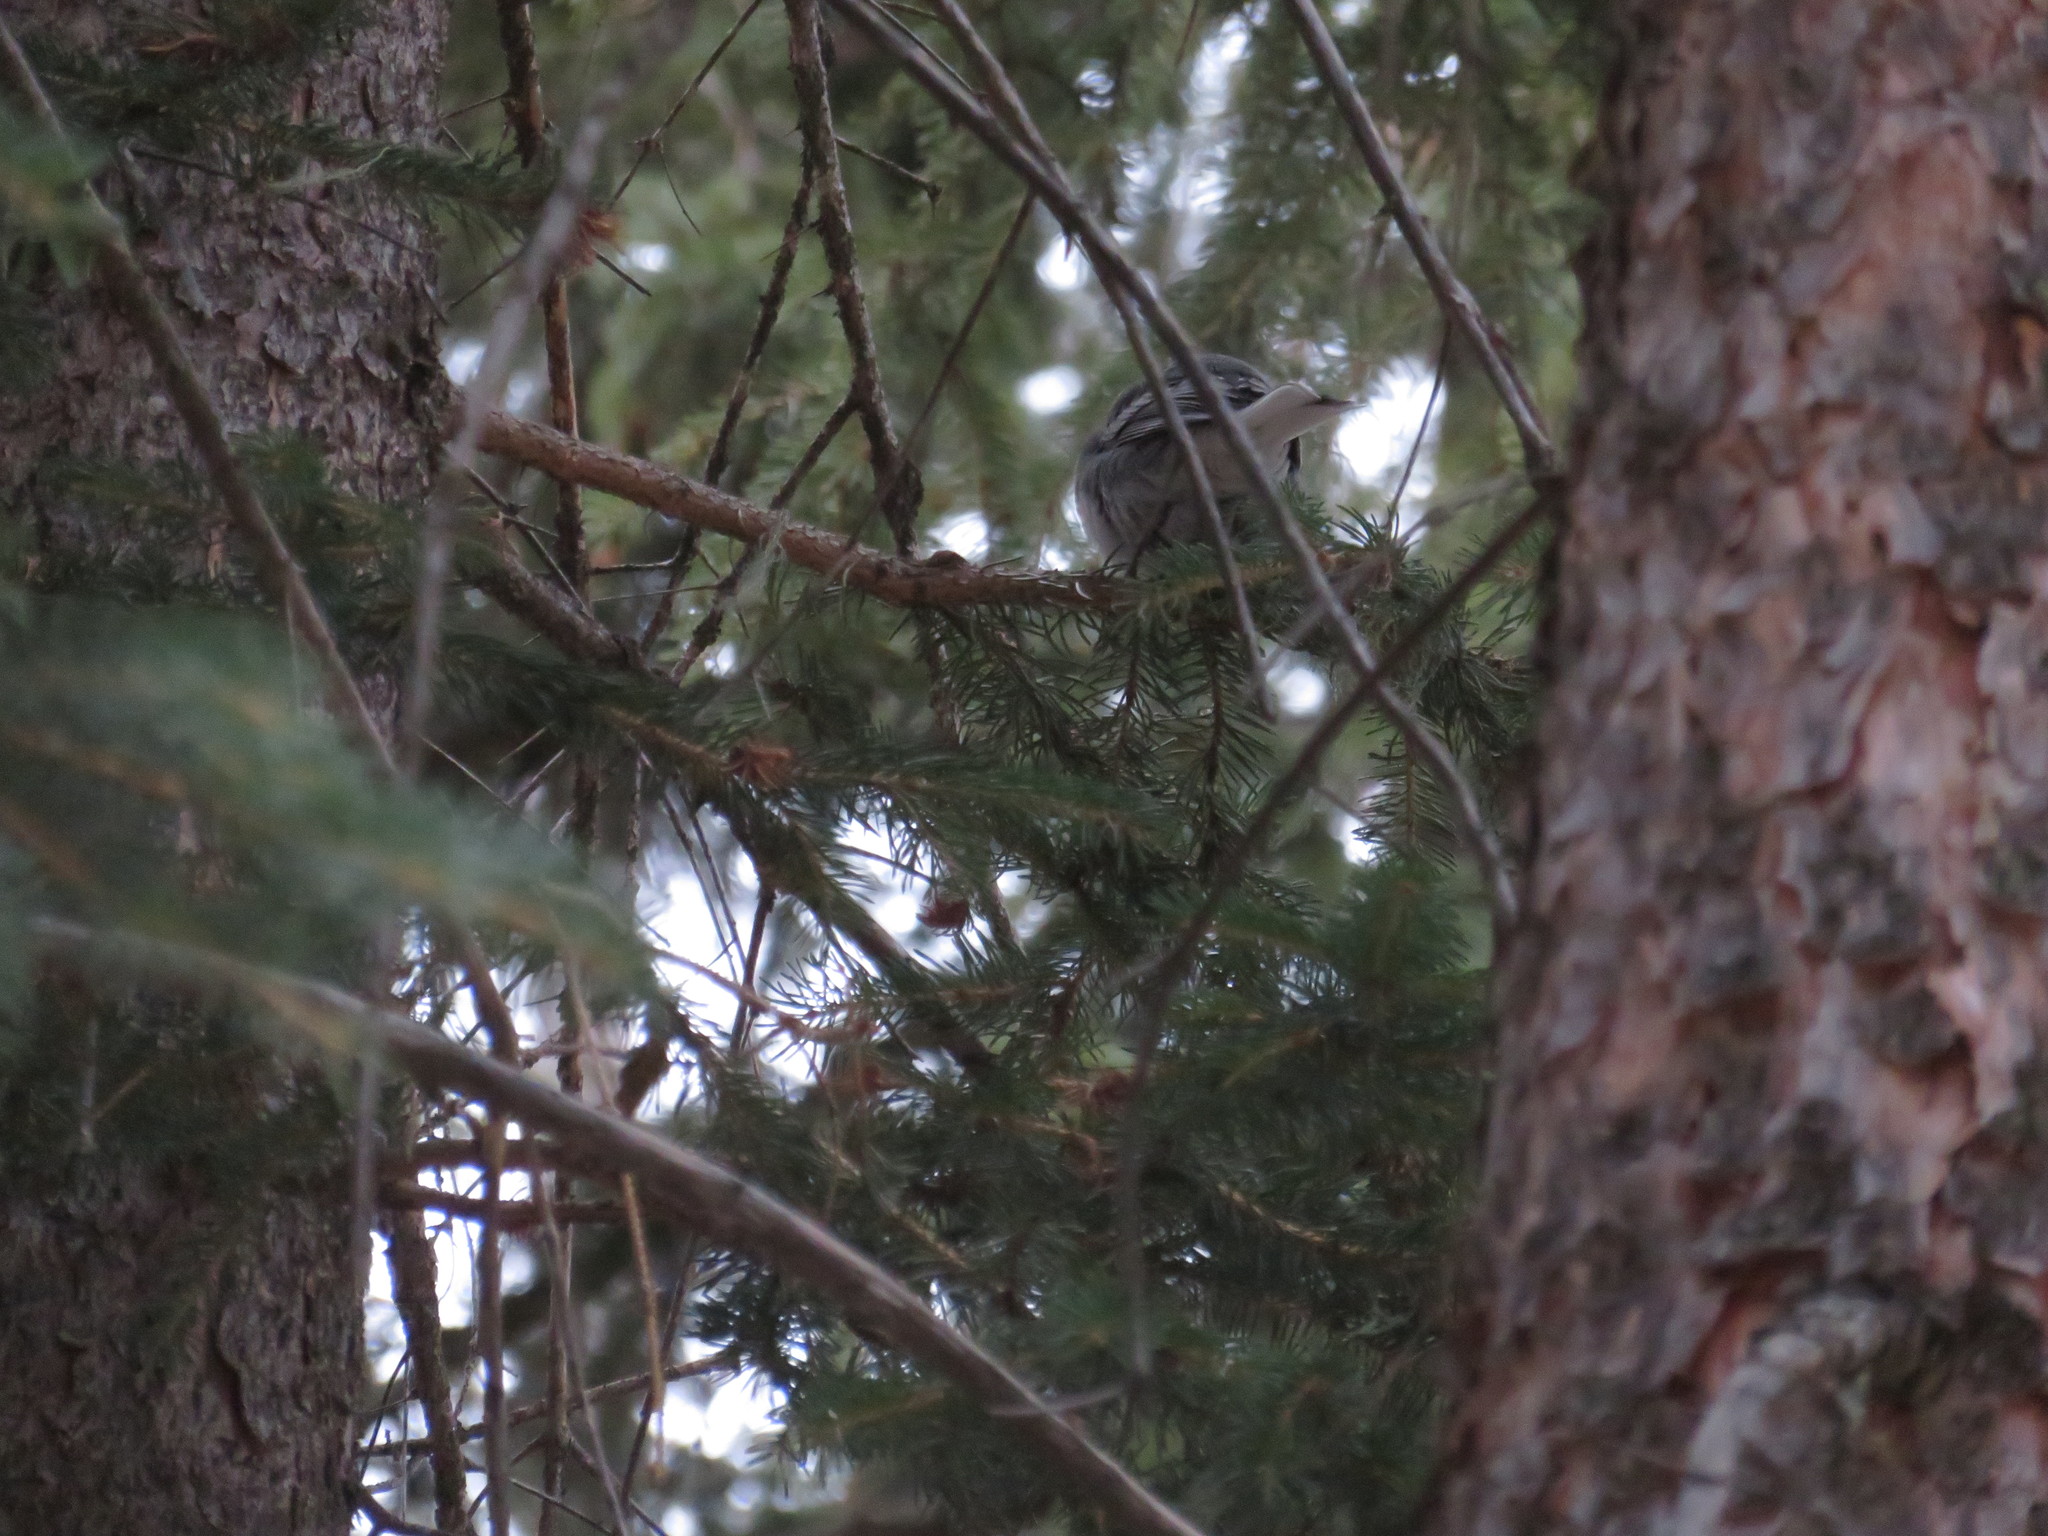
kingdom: Animalia
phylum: Chordata
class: Aves
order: Passeriformes
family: Paridae
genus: Poecile
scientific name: Poecile atricapillus
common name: Black-capped chickadee
